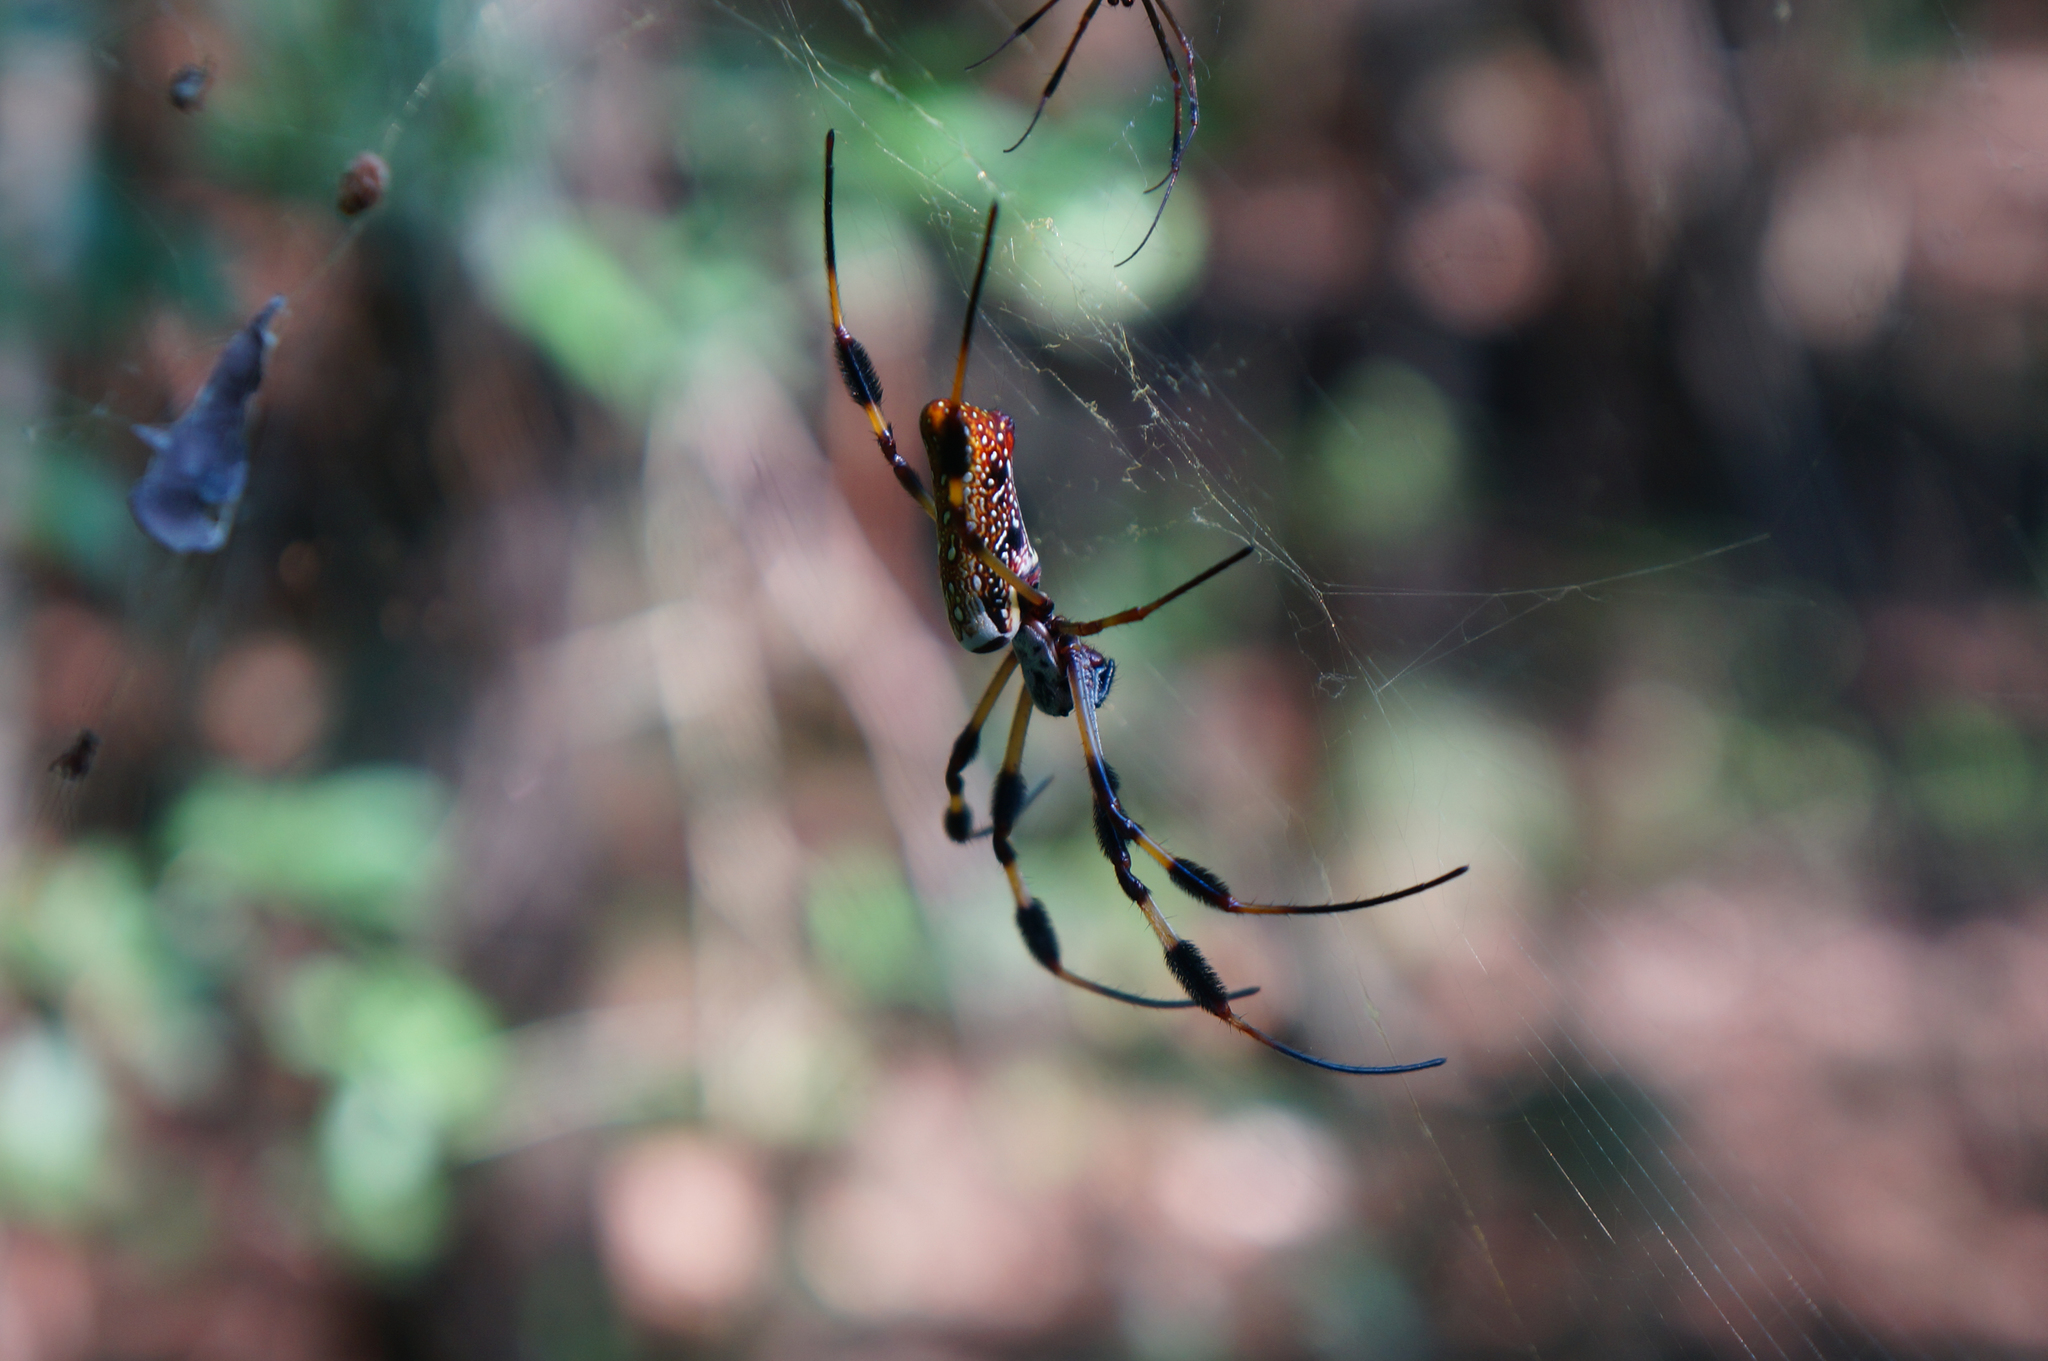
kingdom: Animalia
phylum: Arthropoda
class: Arachnida
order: Araneae
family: Araneidae
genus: Trichonephila
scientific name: Trichonephila clavipes
